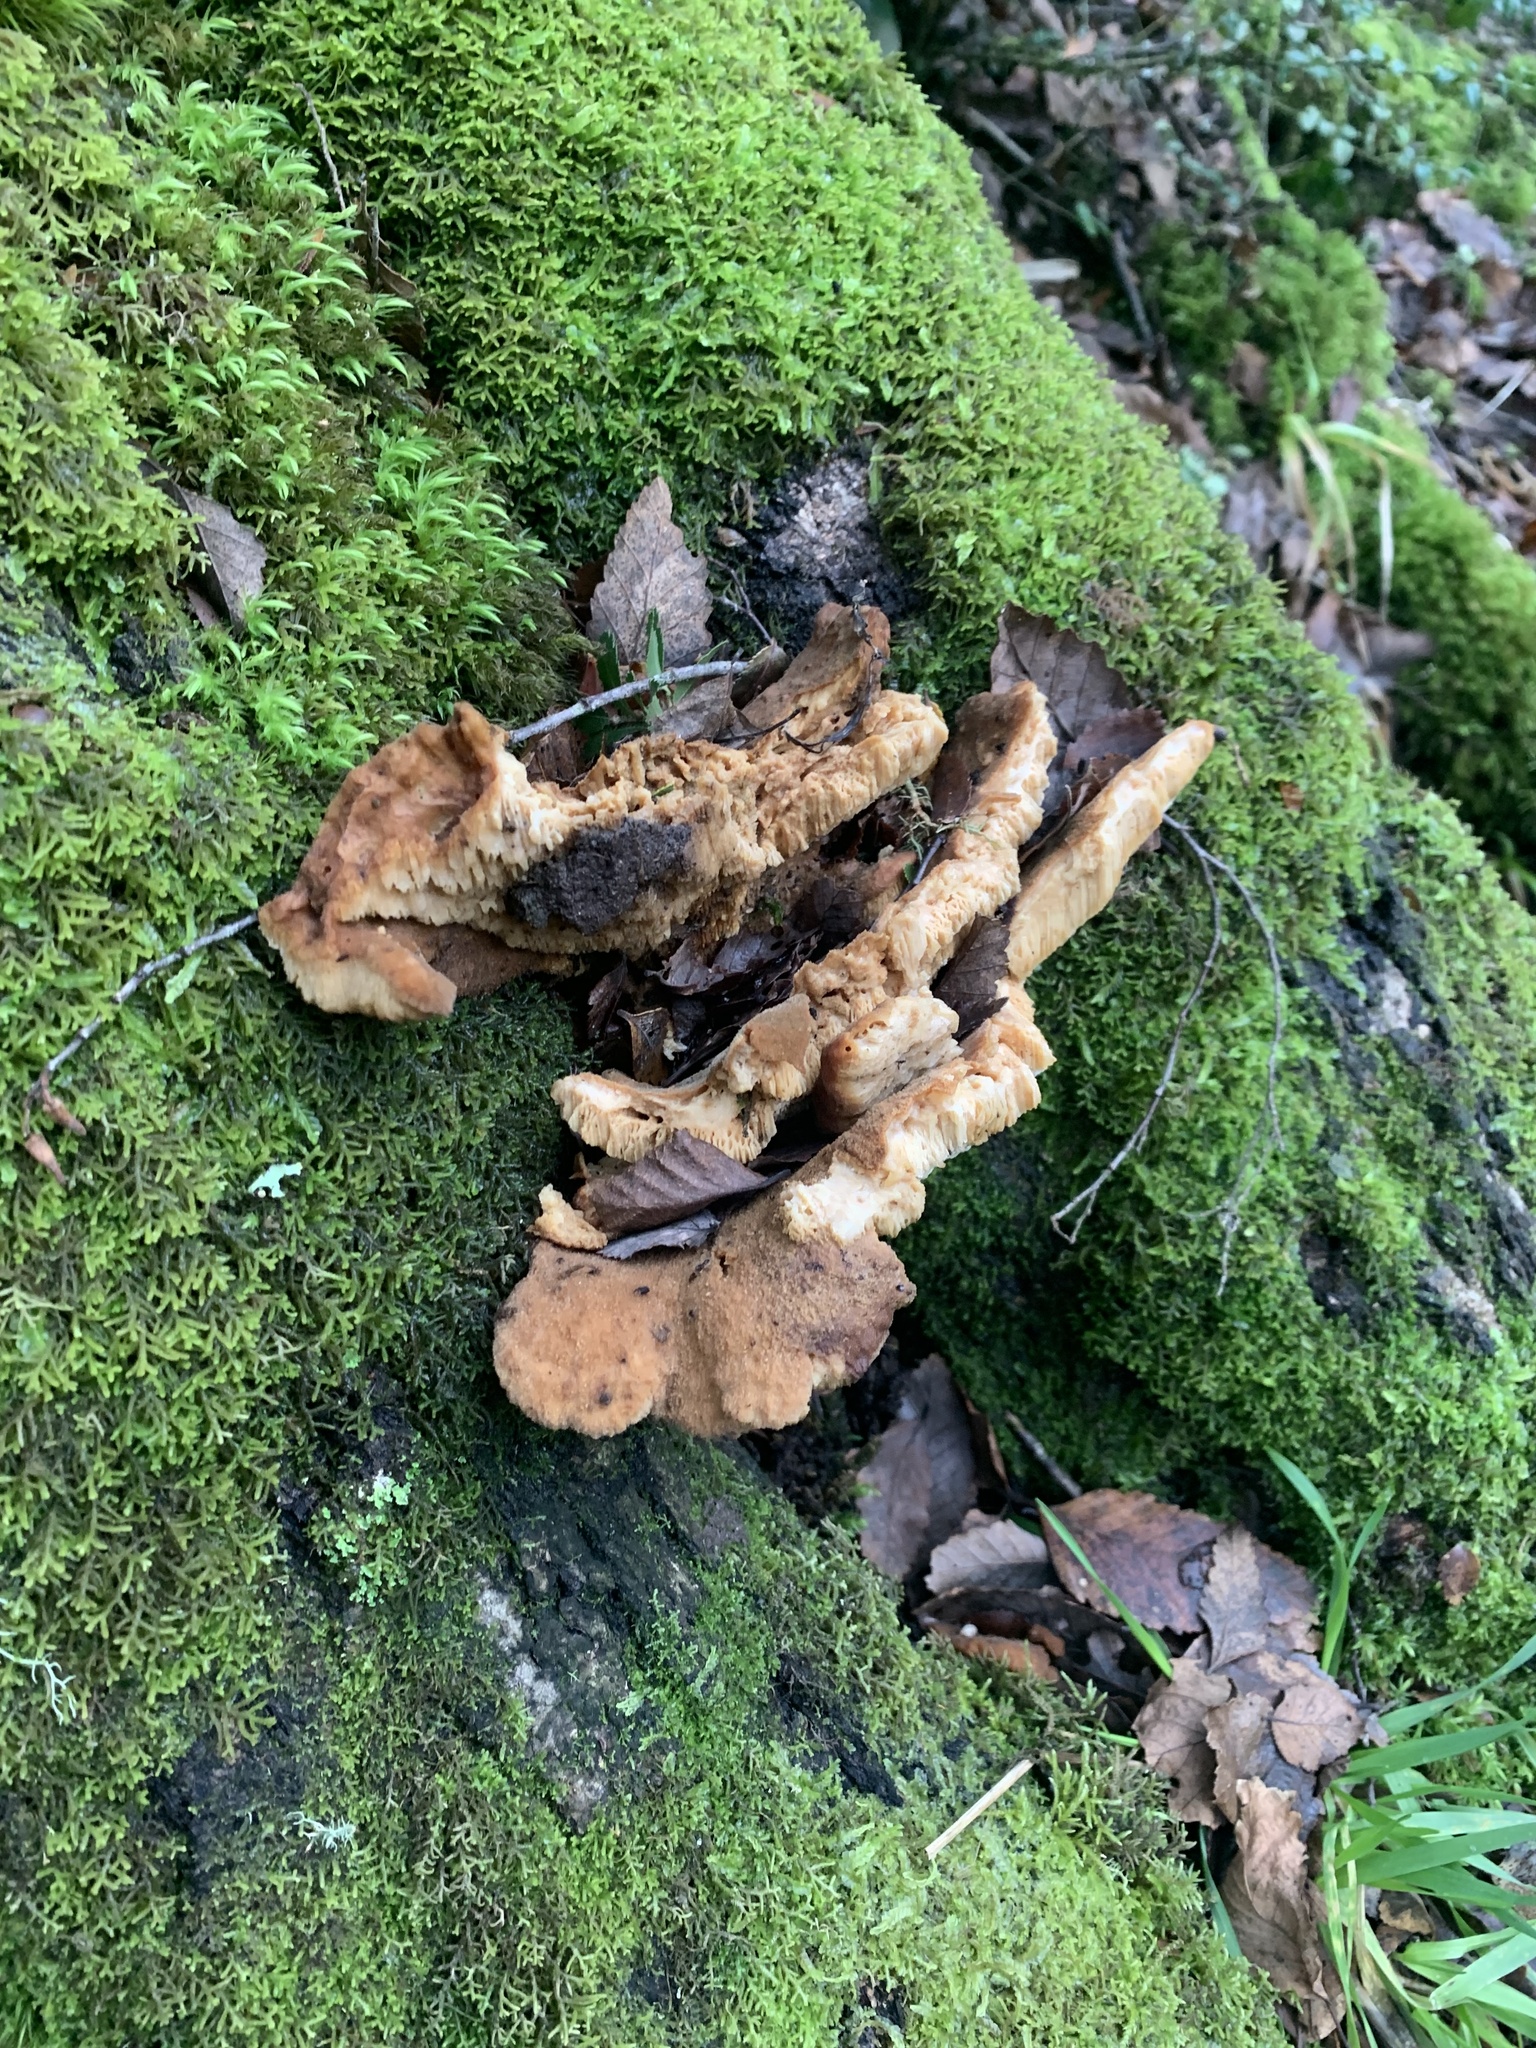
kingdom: Fungi
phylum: Basidiomycota
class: Agaricomycetes
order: Russulales
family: Bondarzewiaceae
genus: Bondarzewia
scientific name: Bondarzewia guaitecasensis
